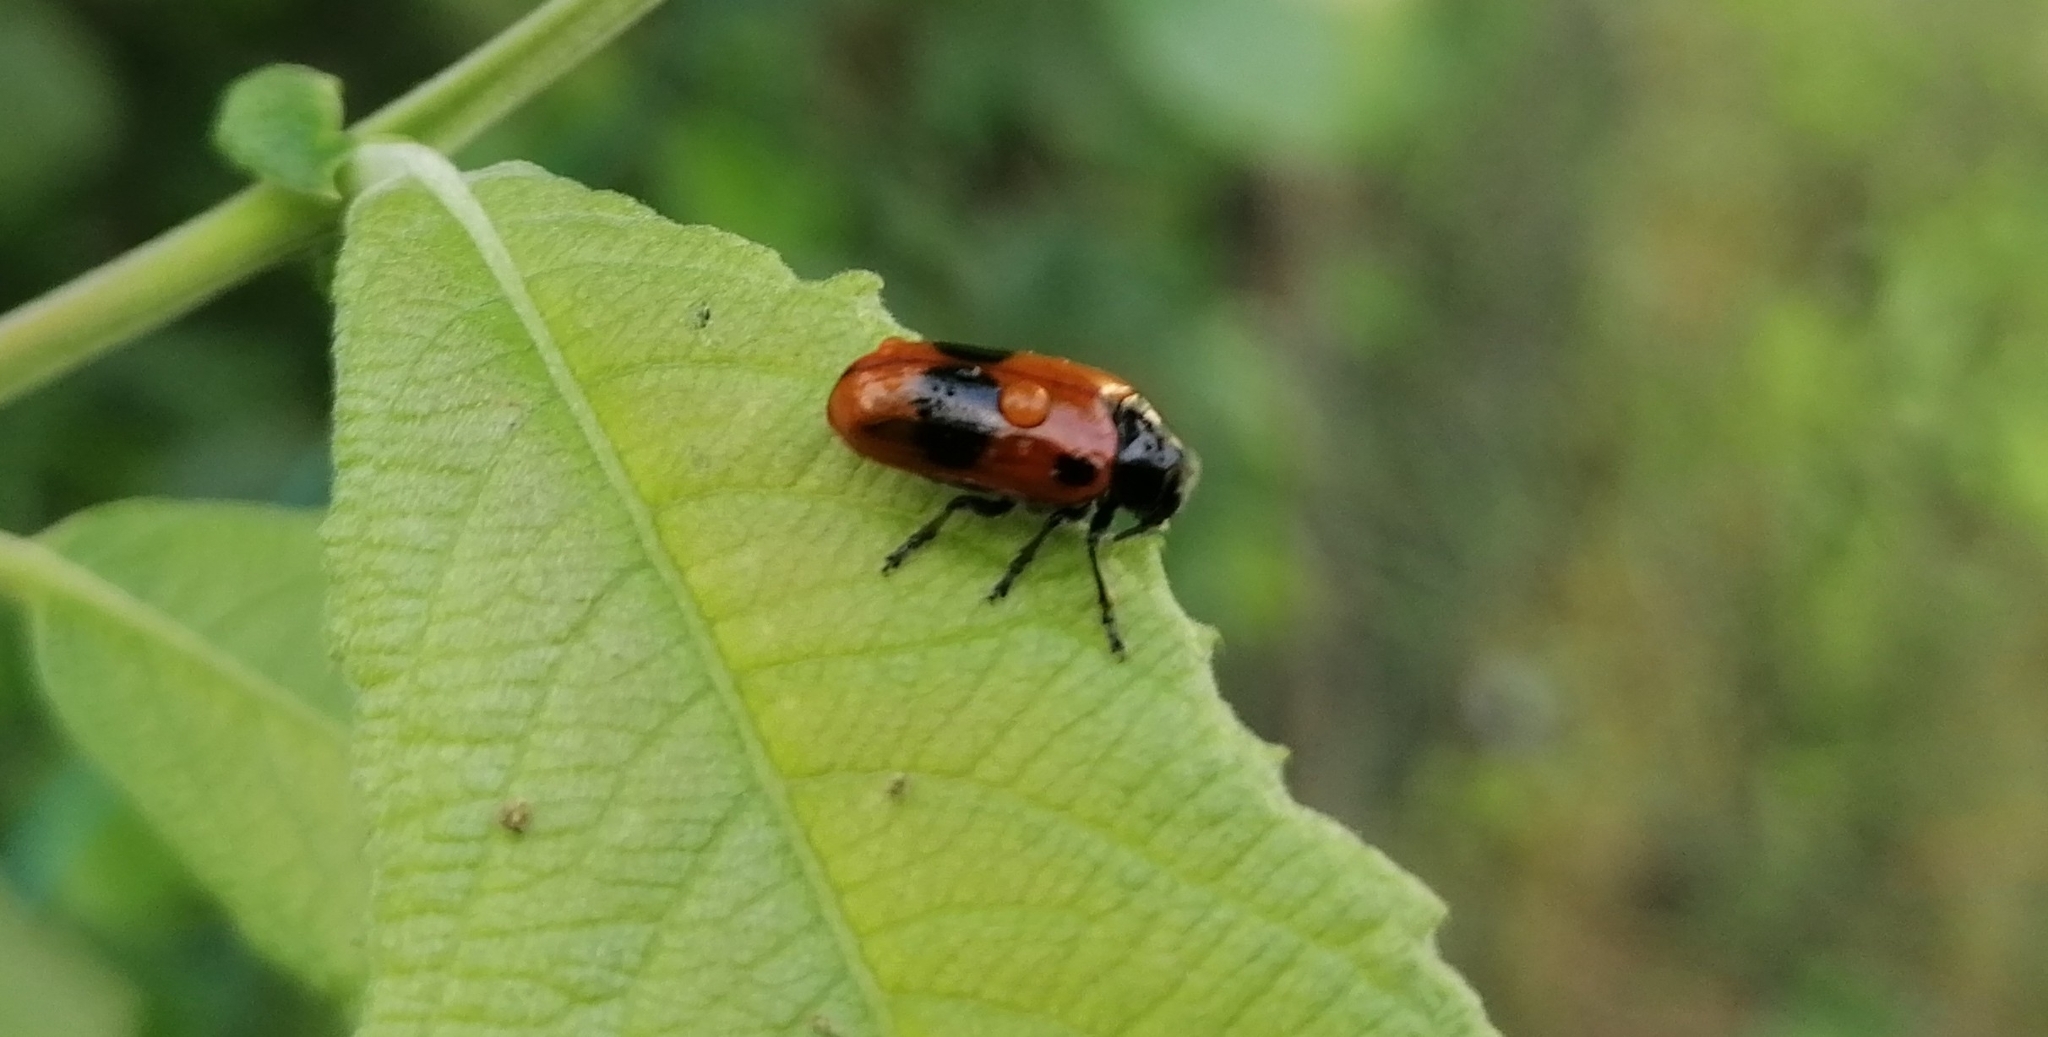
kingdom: Animalia
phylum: Arthropoda
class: Insecta
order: Coleoptera
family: Chrysomelidae
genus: Clytra
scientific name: Clytra laeviuscula
